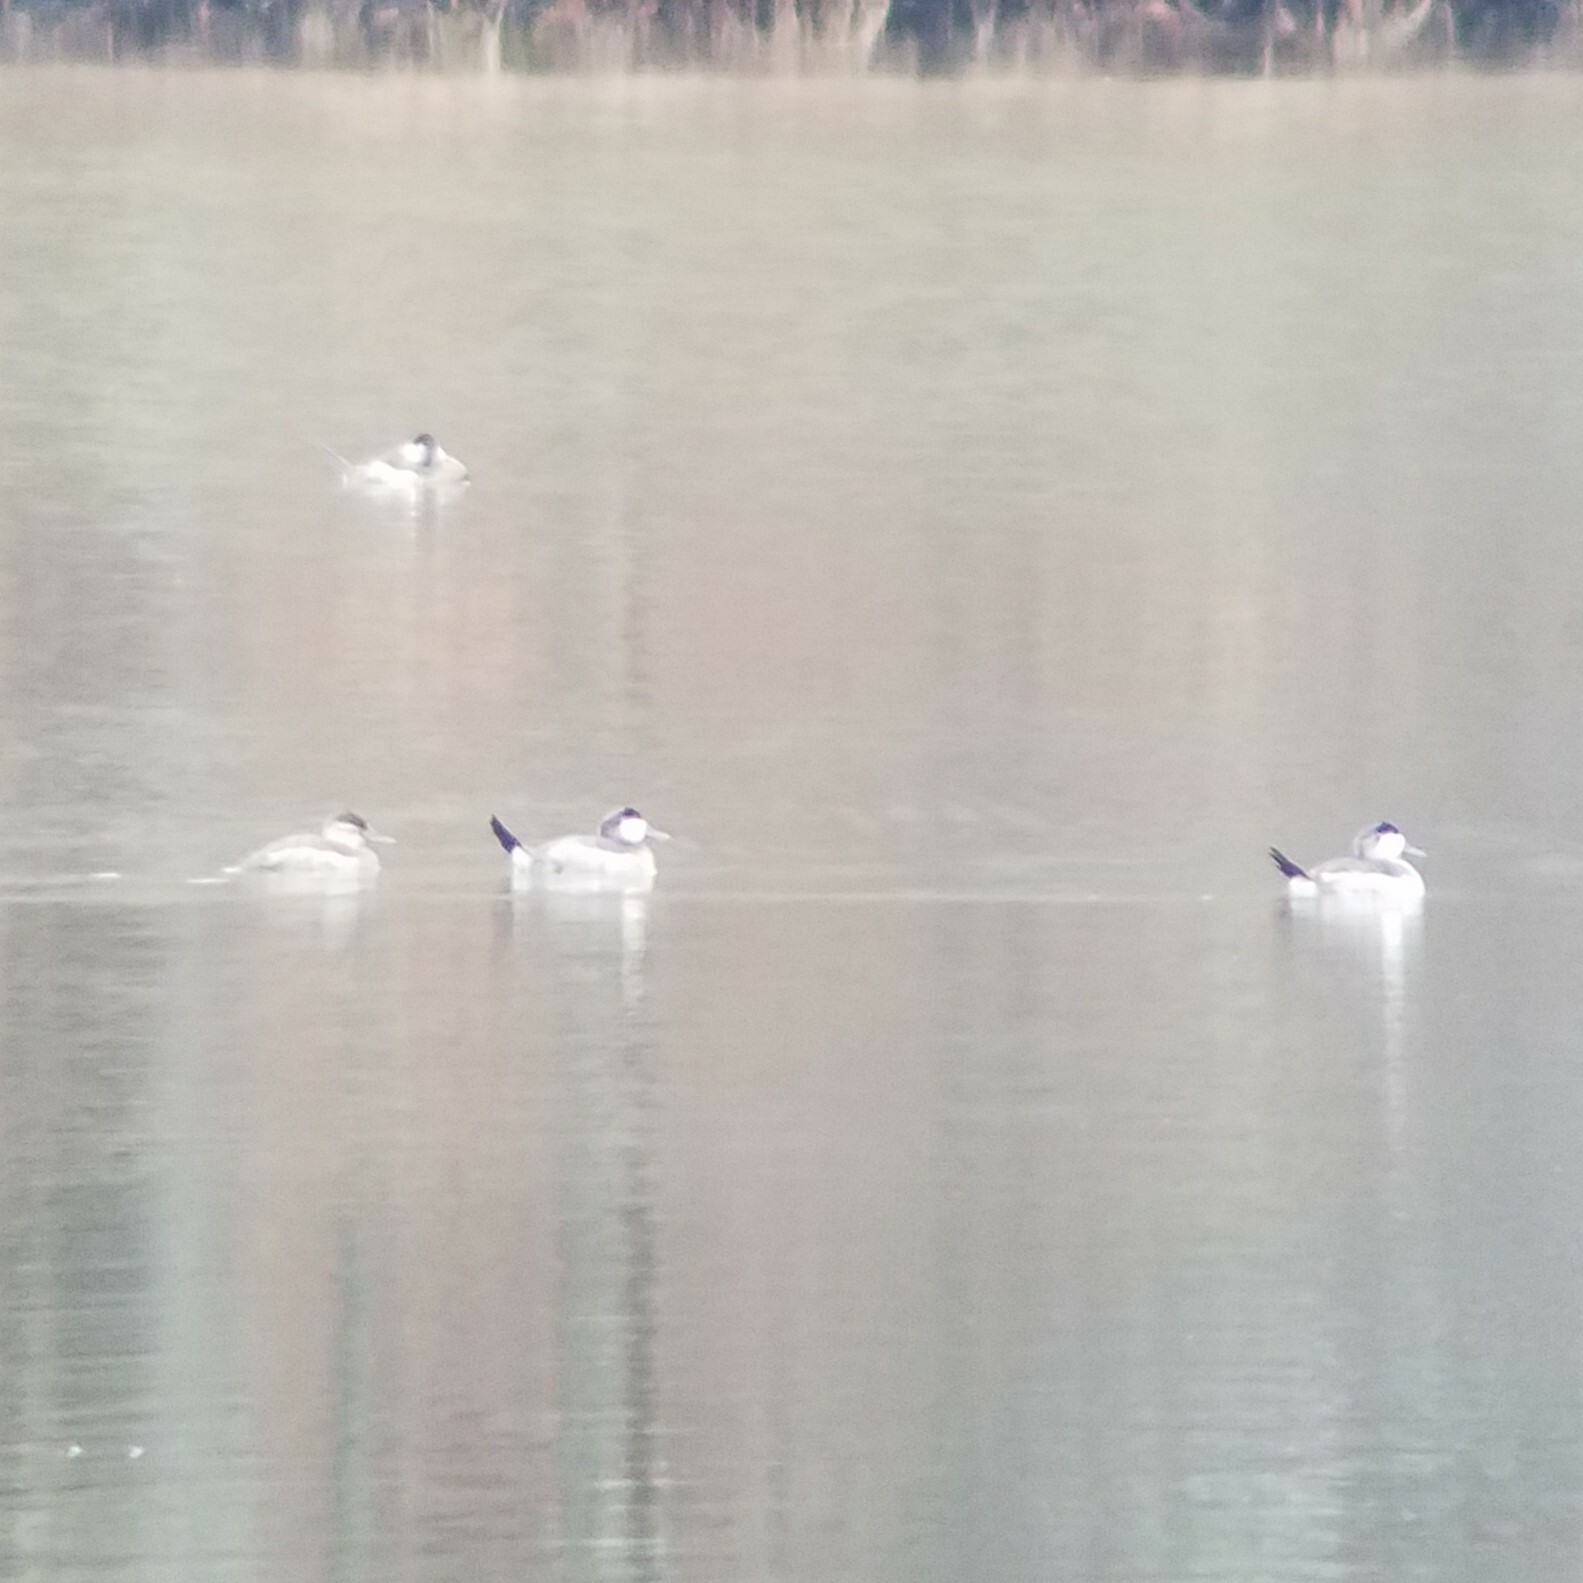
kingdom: Animalia
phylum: Chordata
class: Aves
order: Anseriformes
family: Anatidae
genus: Oxyura
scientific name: Oxyura jamaicensis
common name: Ruddy duck
